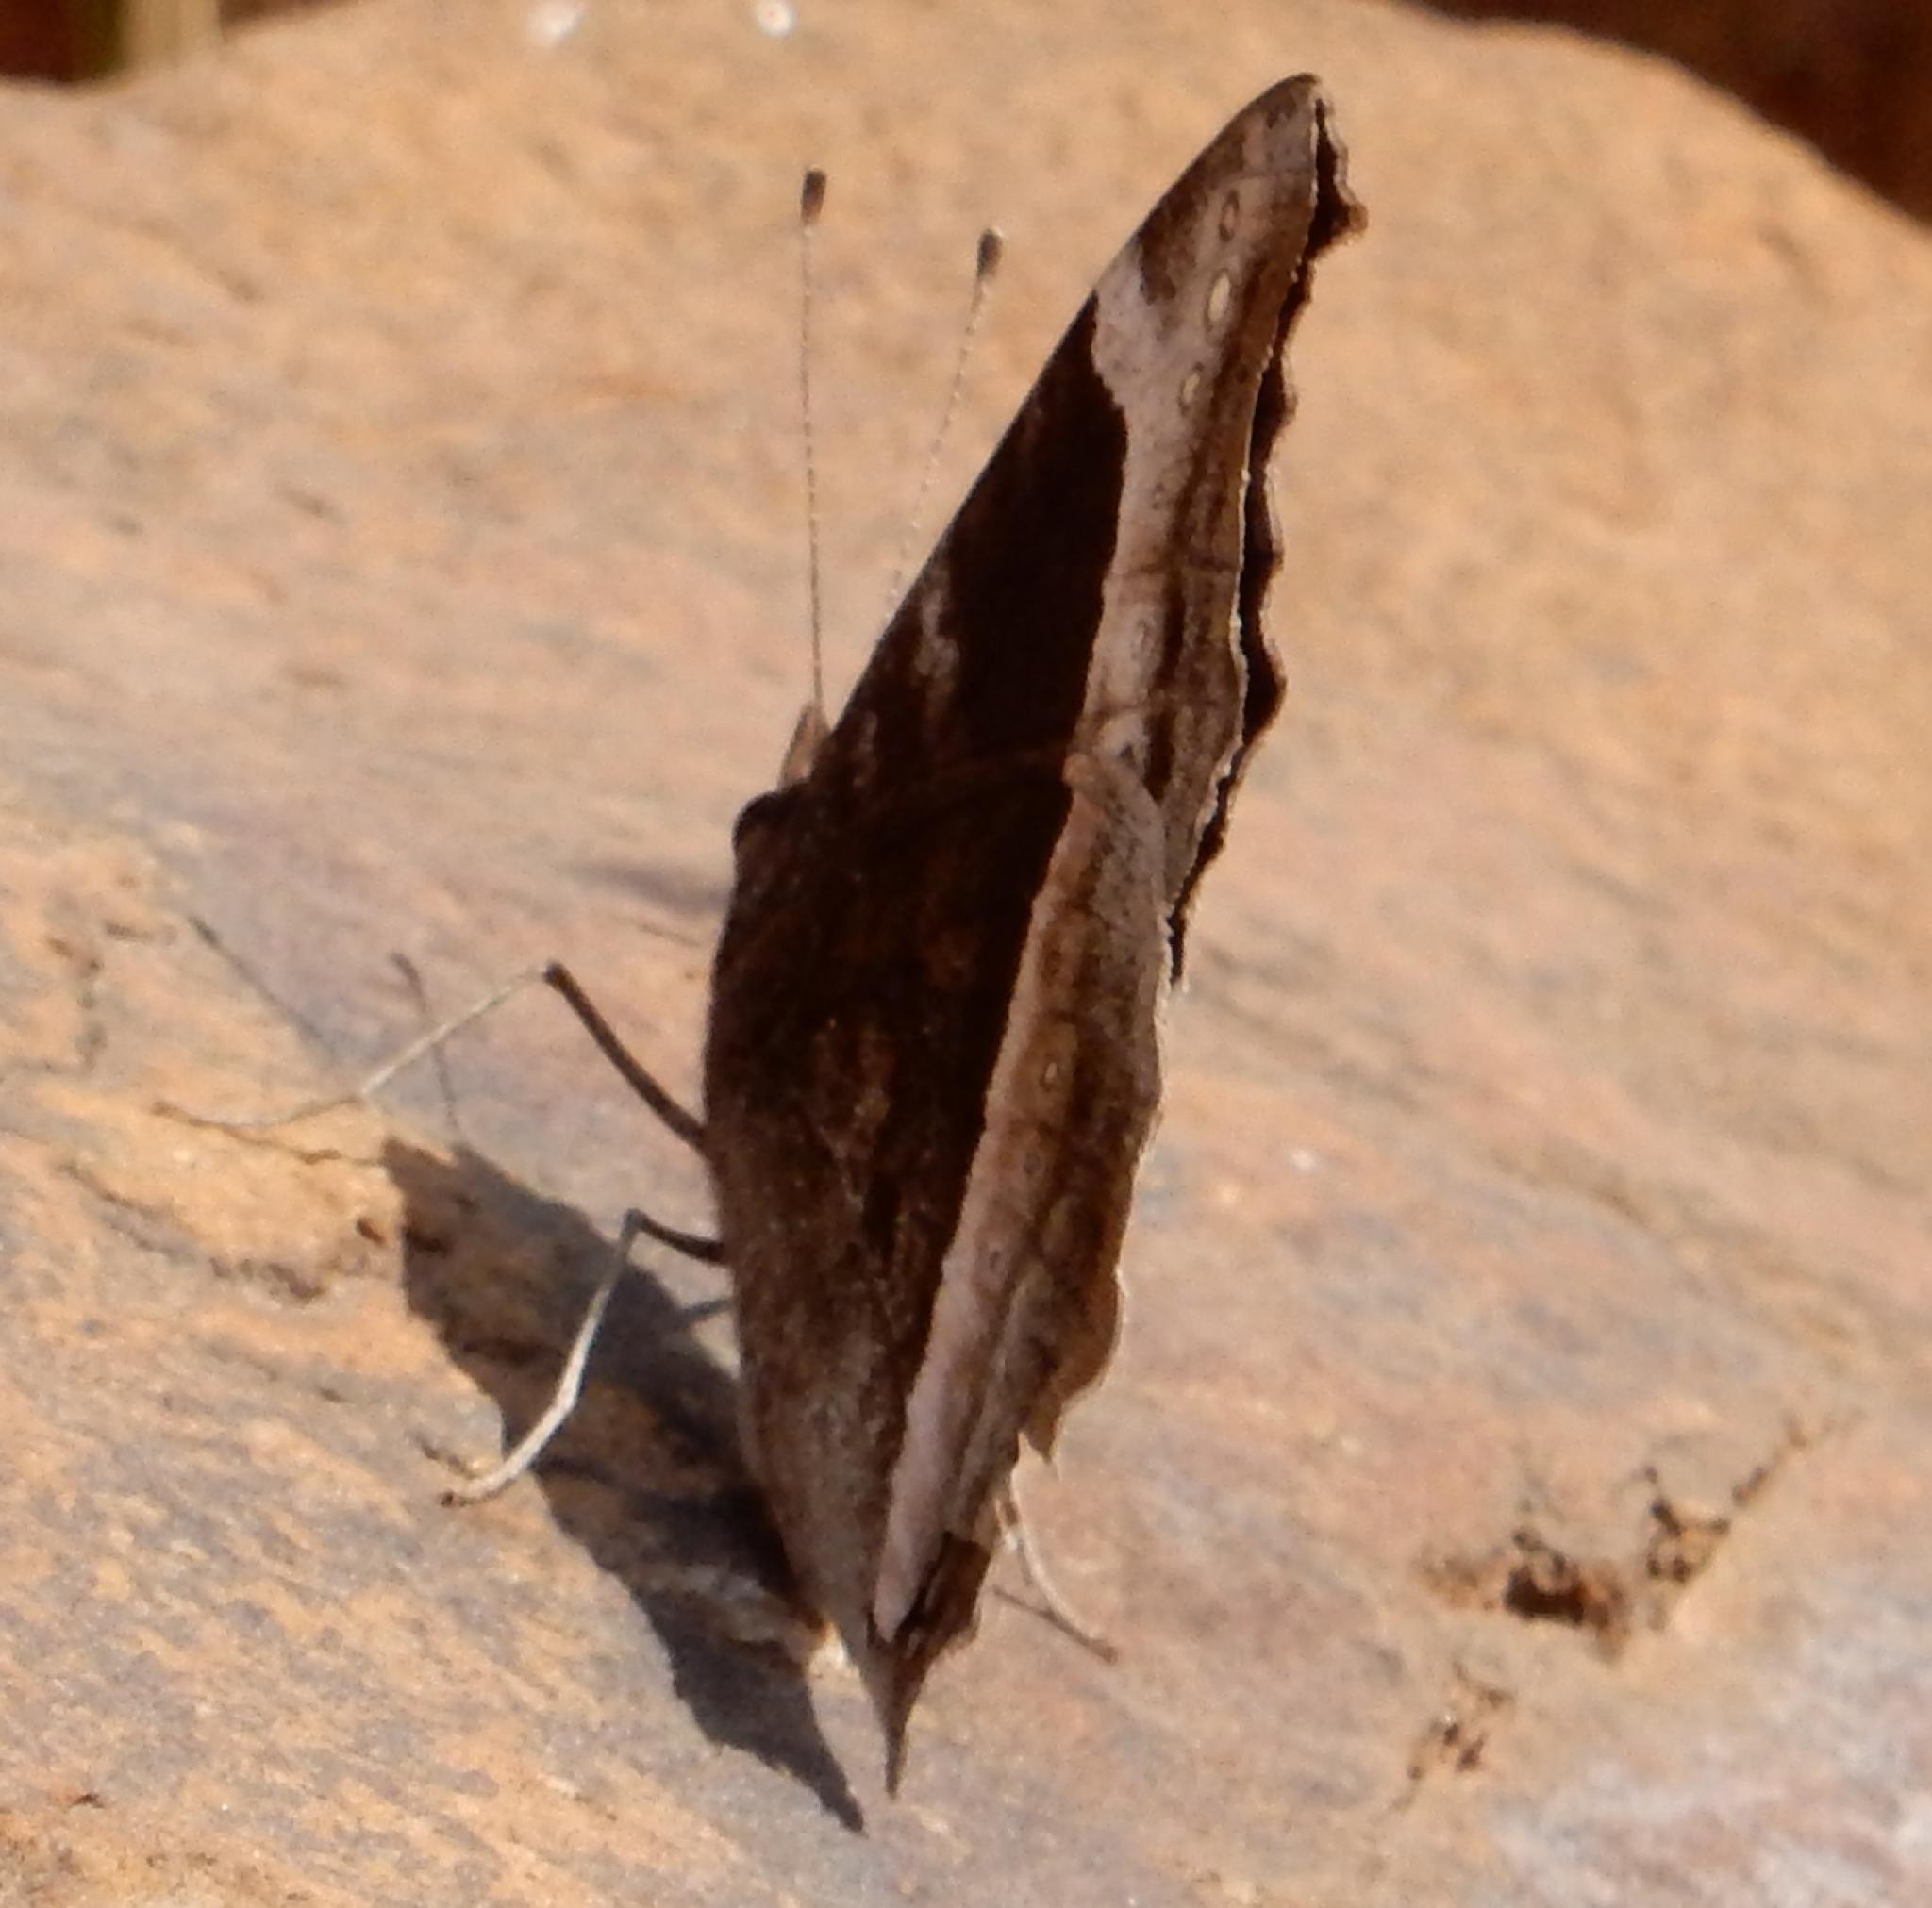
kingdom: Animalia
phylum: Arthropoda
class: Insecta
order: Lepidoptera
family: Nymphalidae
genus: Junonia
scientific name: Junonia archesia
